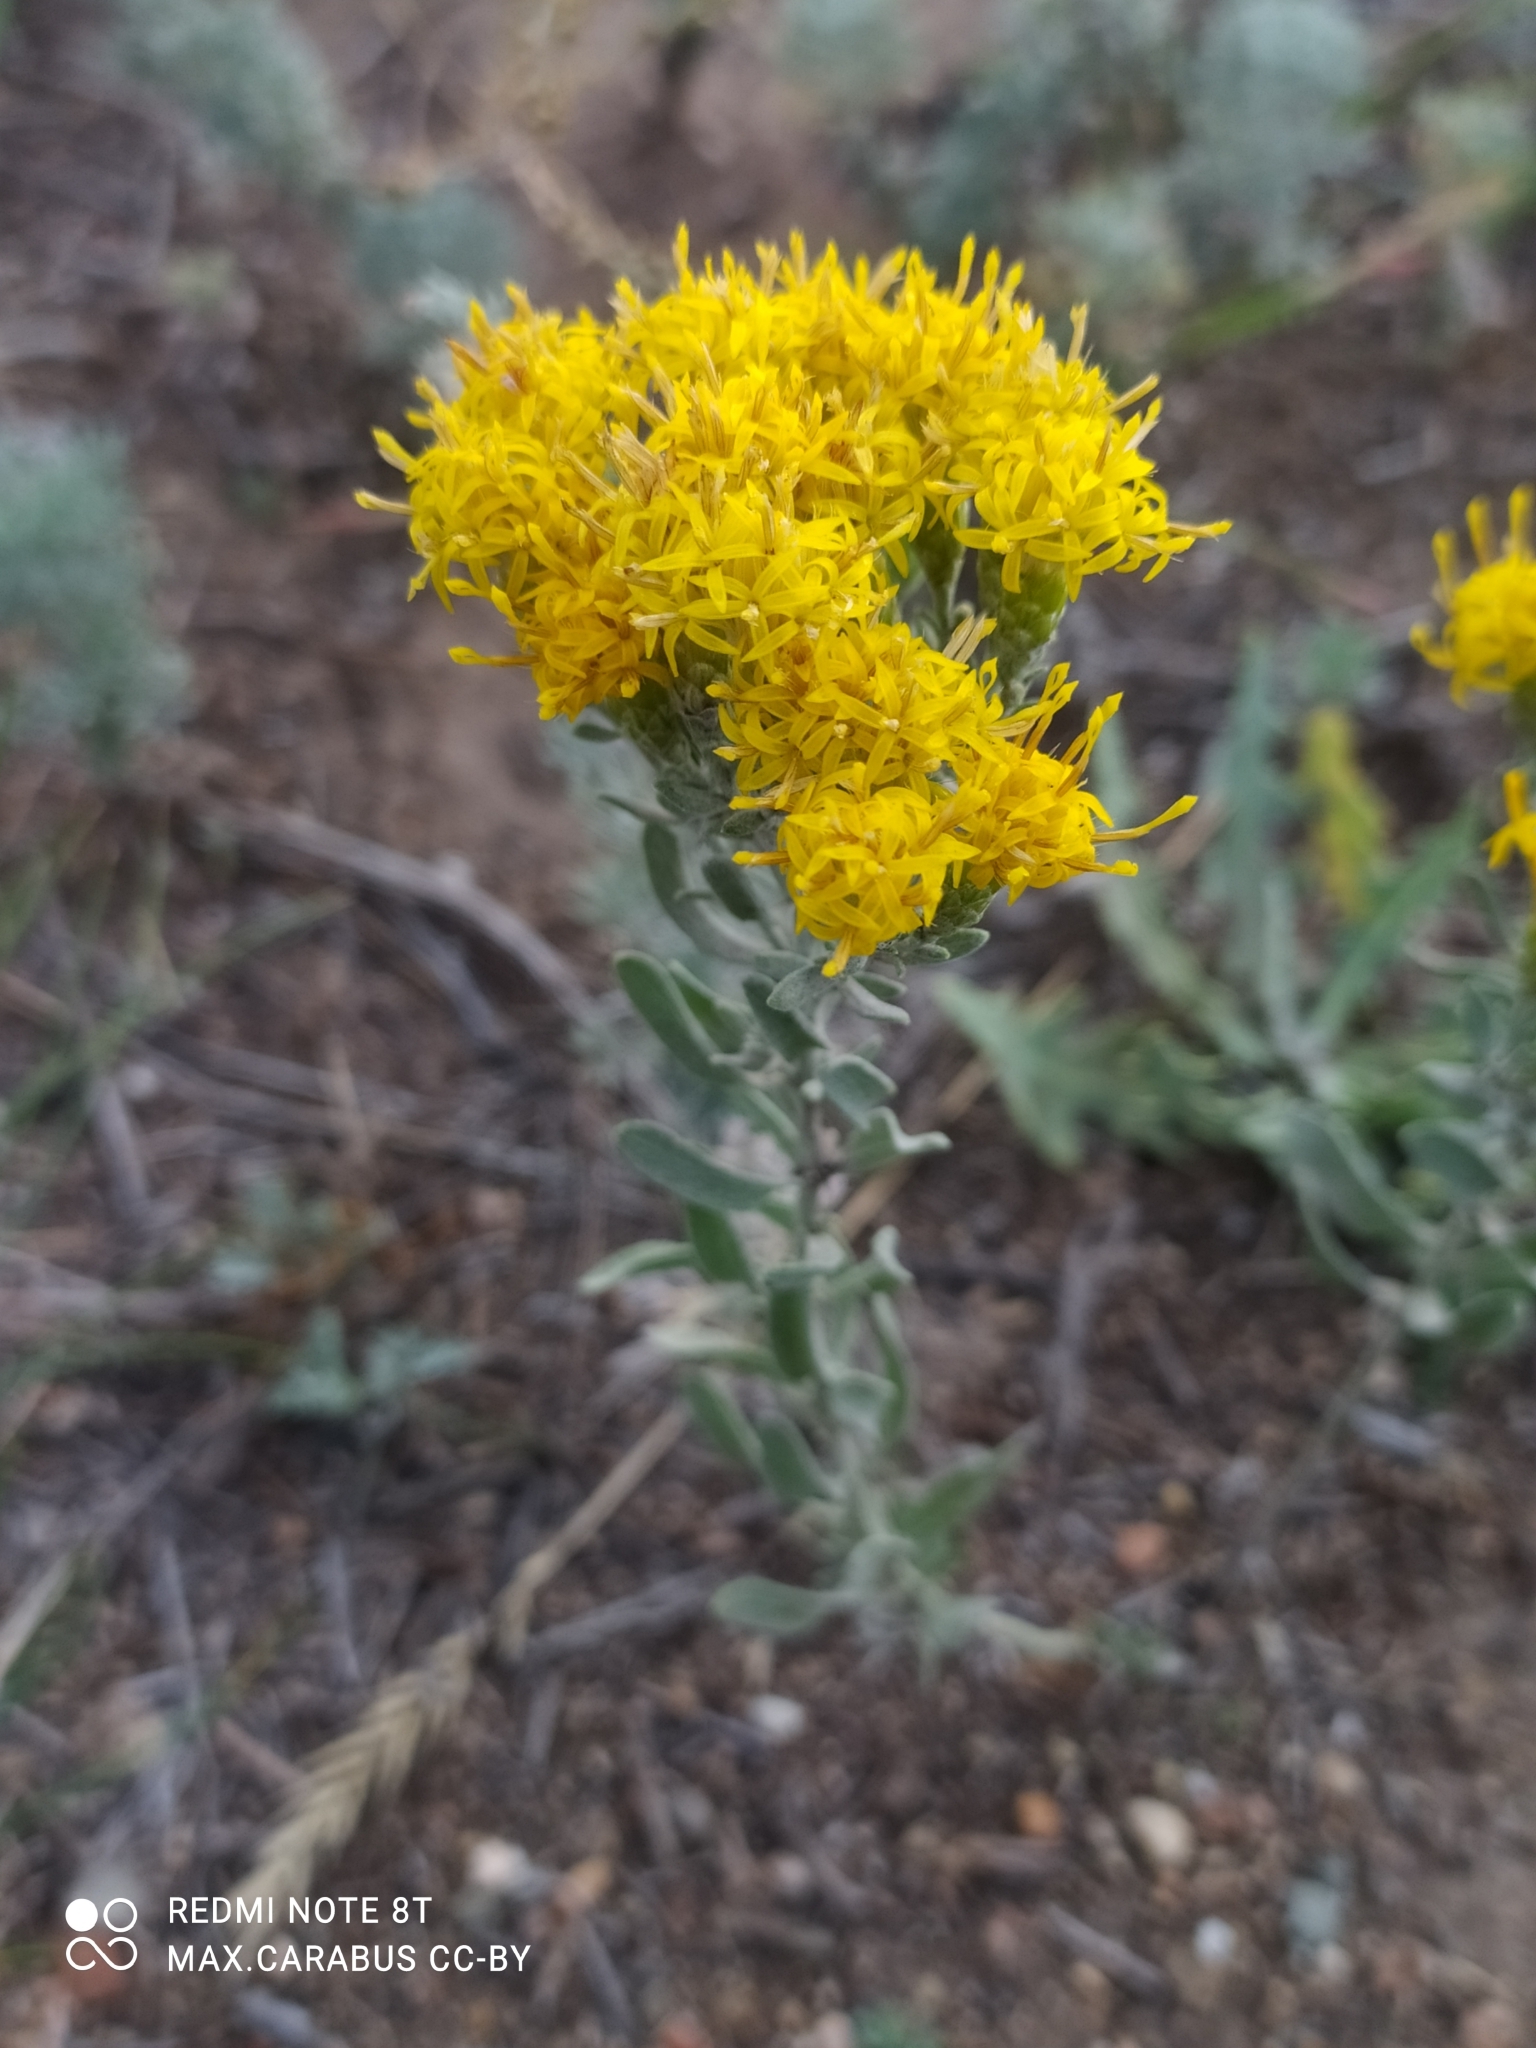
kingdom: Plantae
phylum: Tracheophyta
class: Magnoliopsida
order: Asterales
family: Asteraceae
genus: Galatella
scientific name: Galatella villosa
